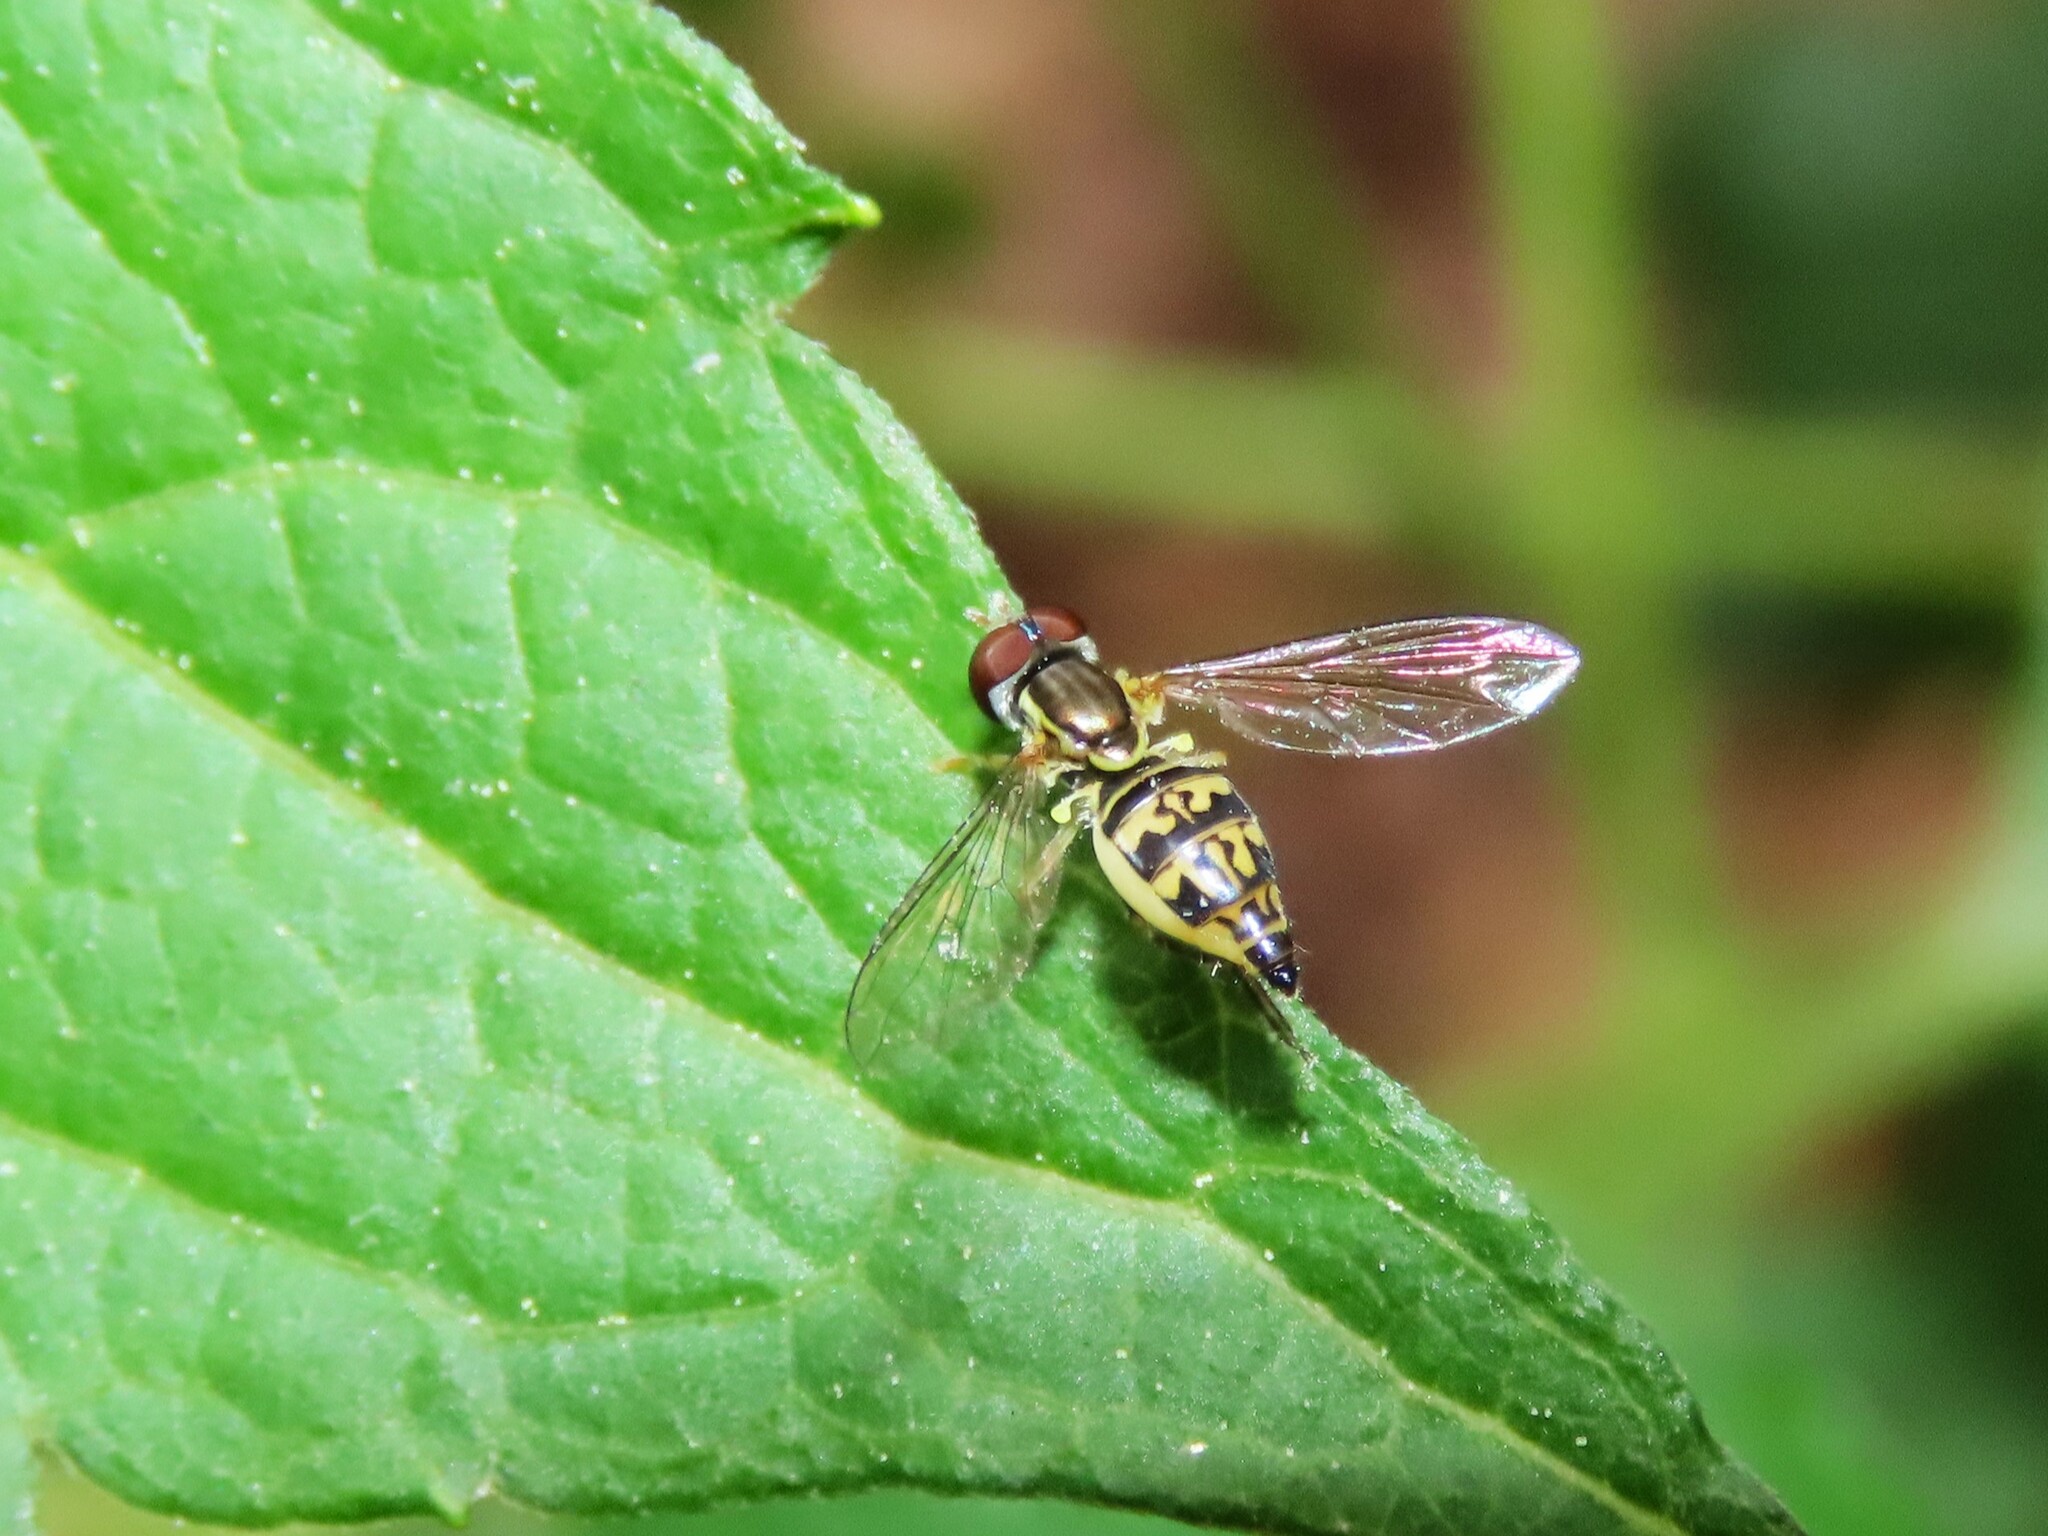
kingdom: Animalia
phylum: Arthropoda
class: Insecta
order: Diptera
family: Syrphidae
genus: Toxomerus
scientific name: Toxomerus geminatus
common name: Eastern calligrapher
